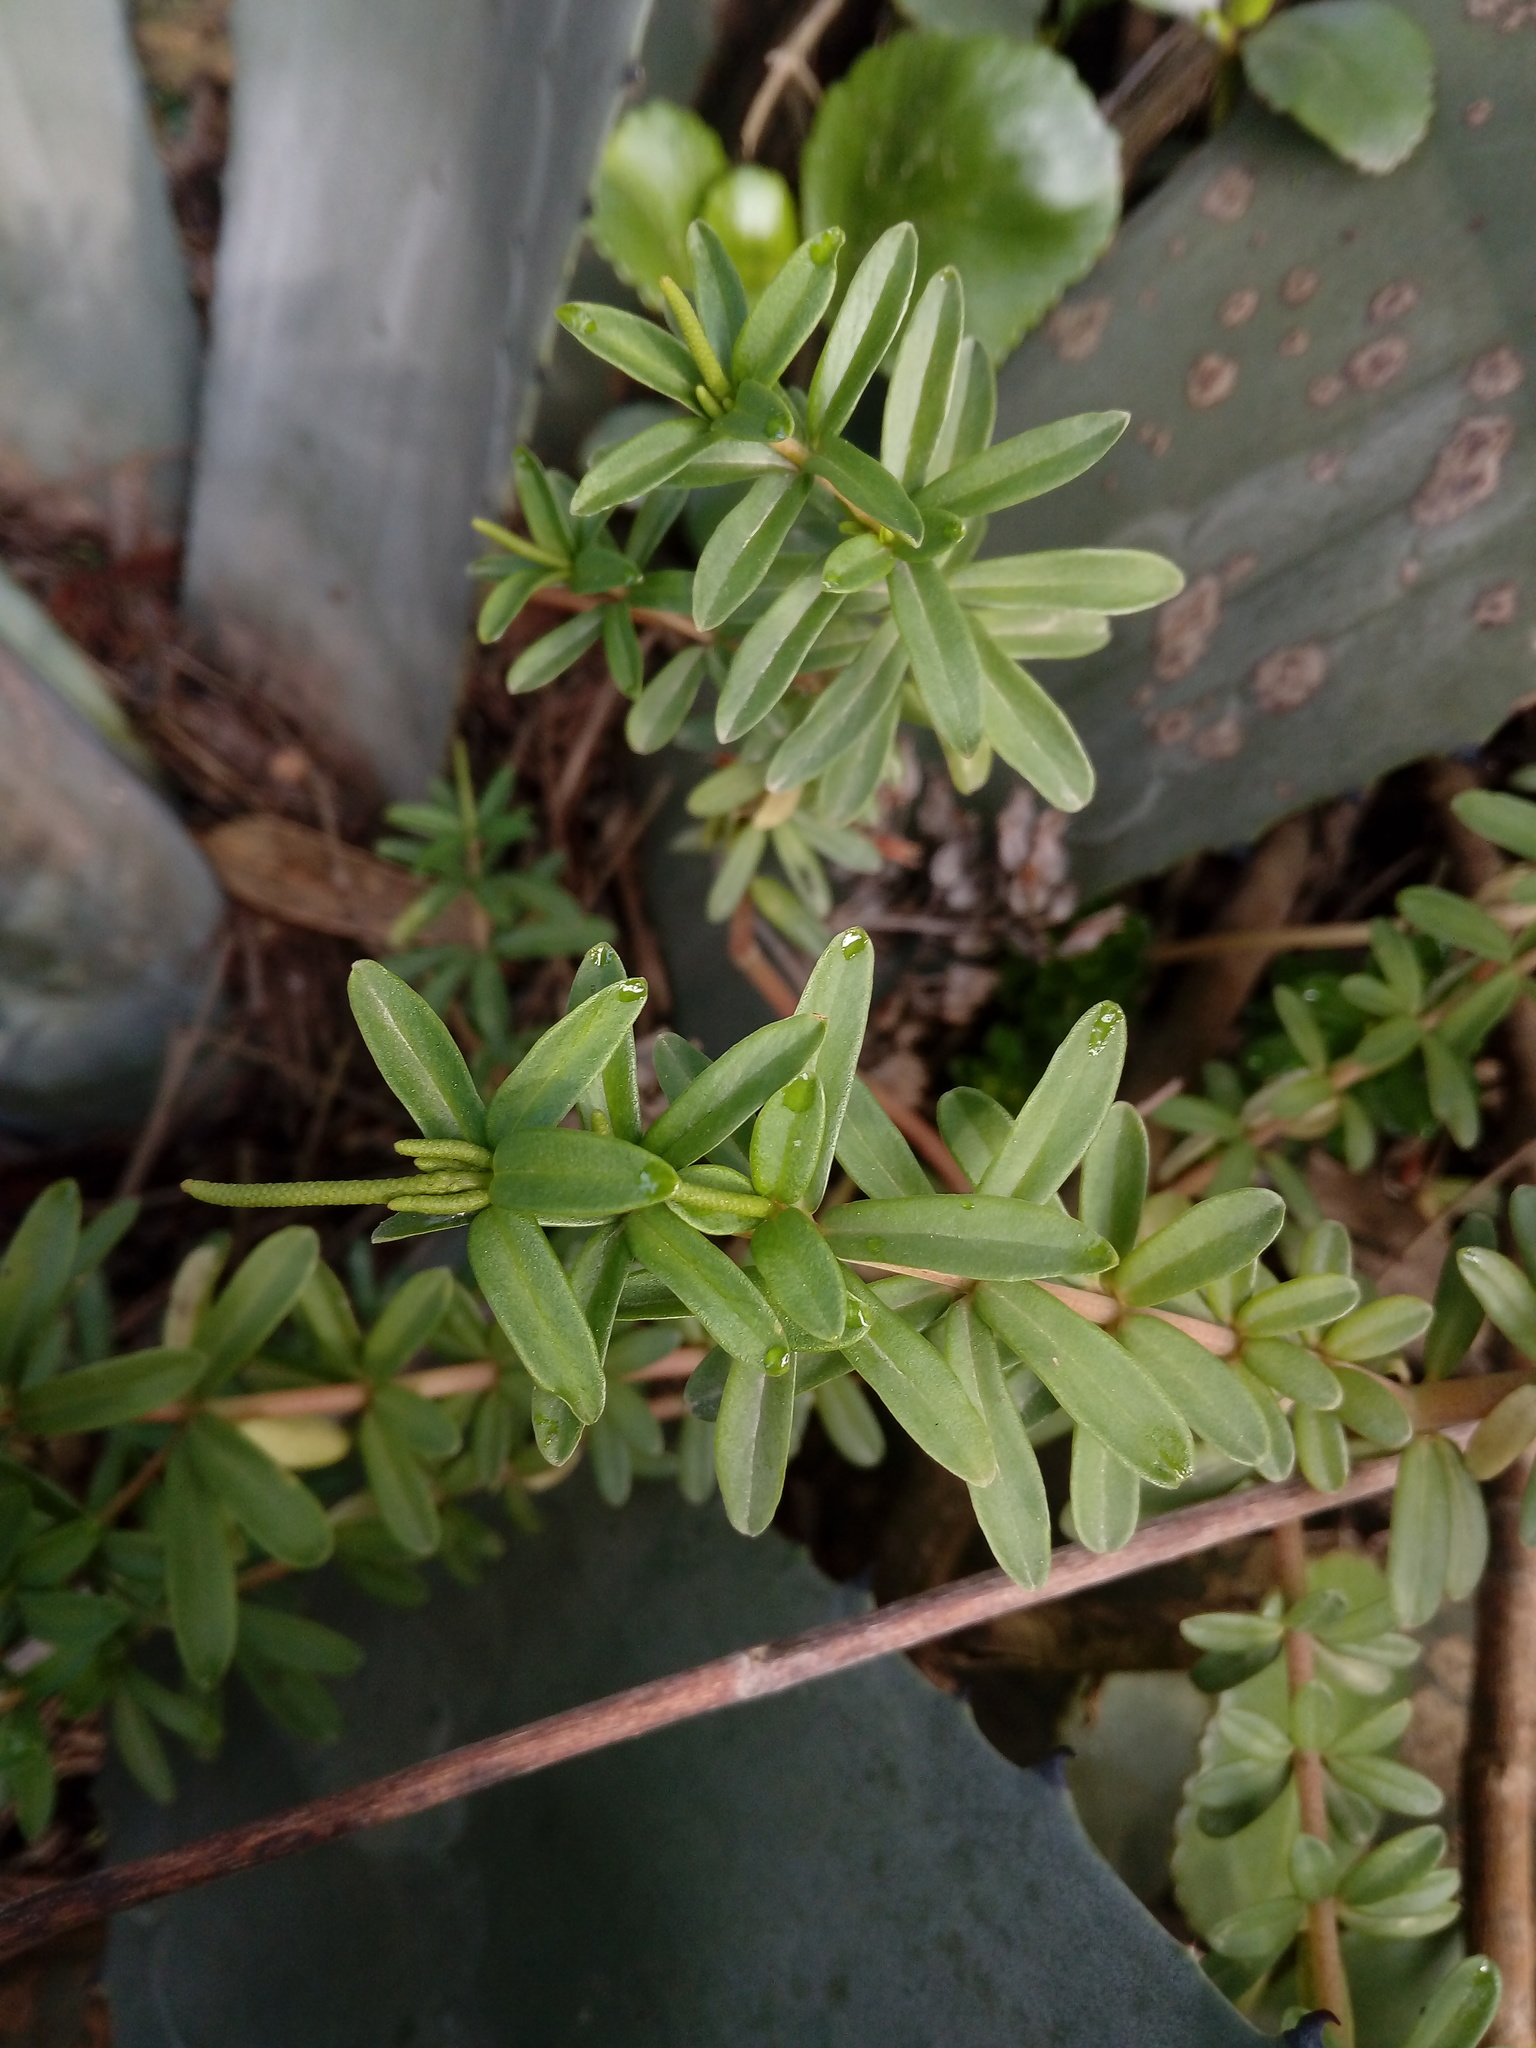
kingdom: Plantae
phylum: Tracheophyta
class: Magnoliopsida
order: Piperales
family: Piperaceae
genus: Peperomia
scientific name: Peperomia ilaloensis
